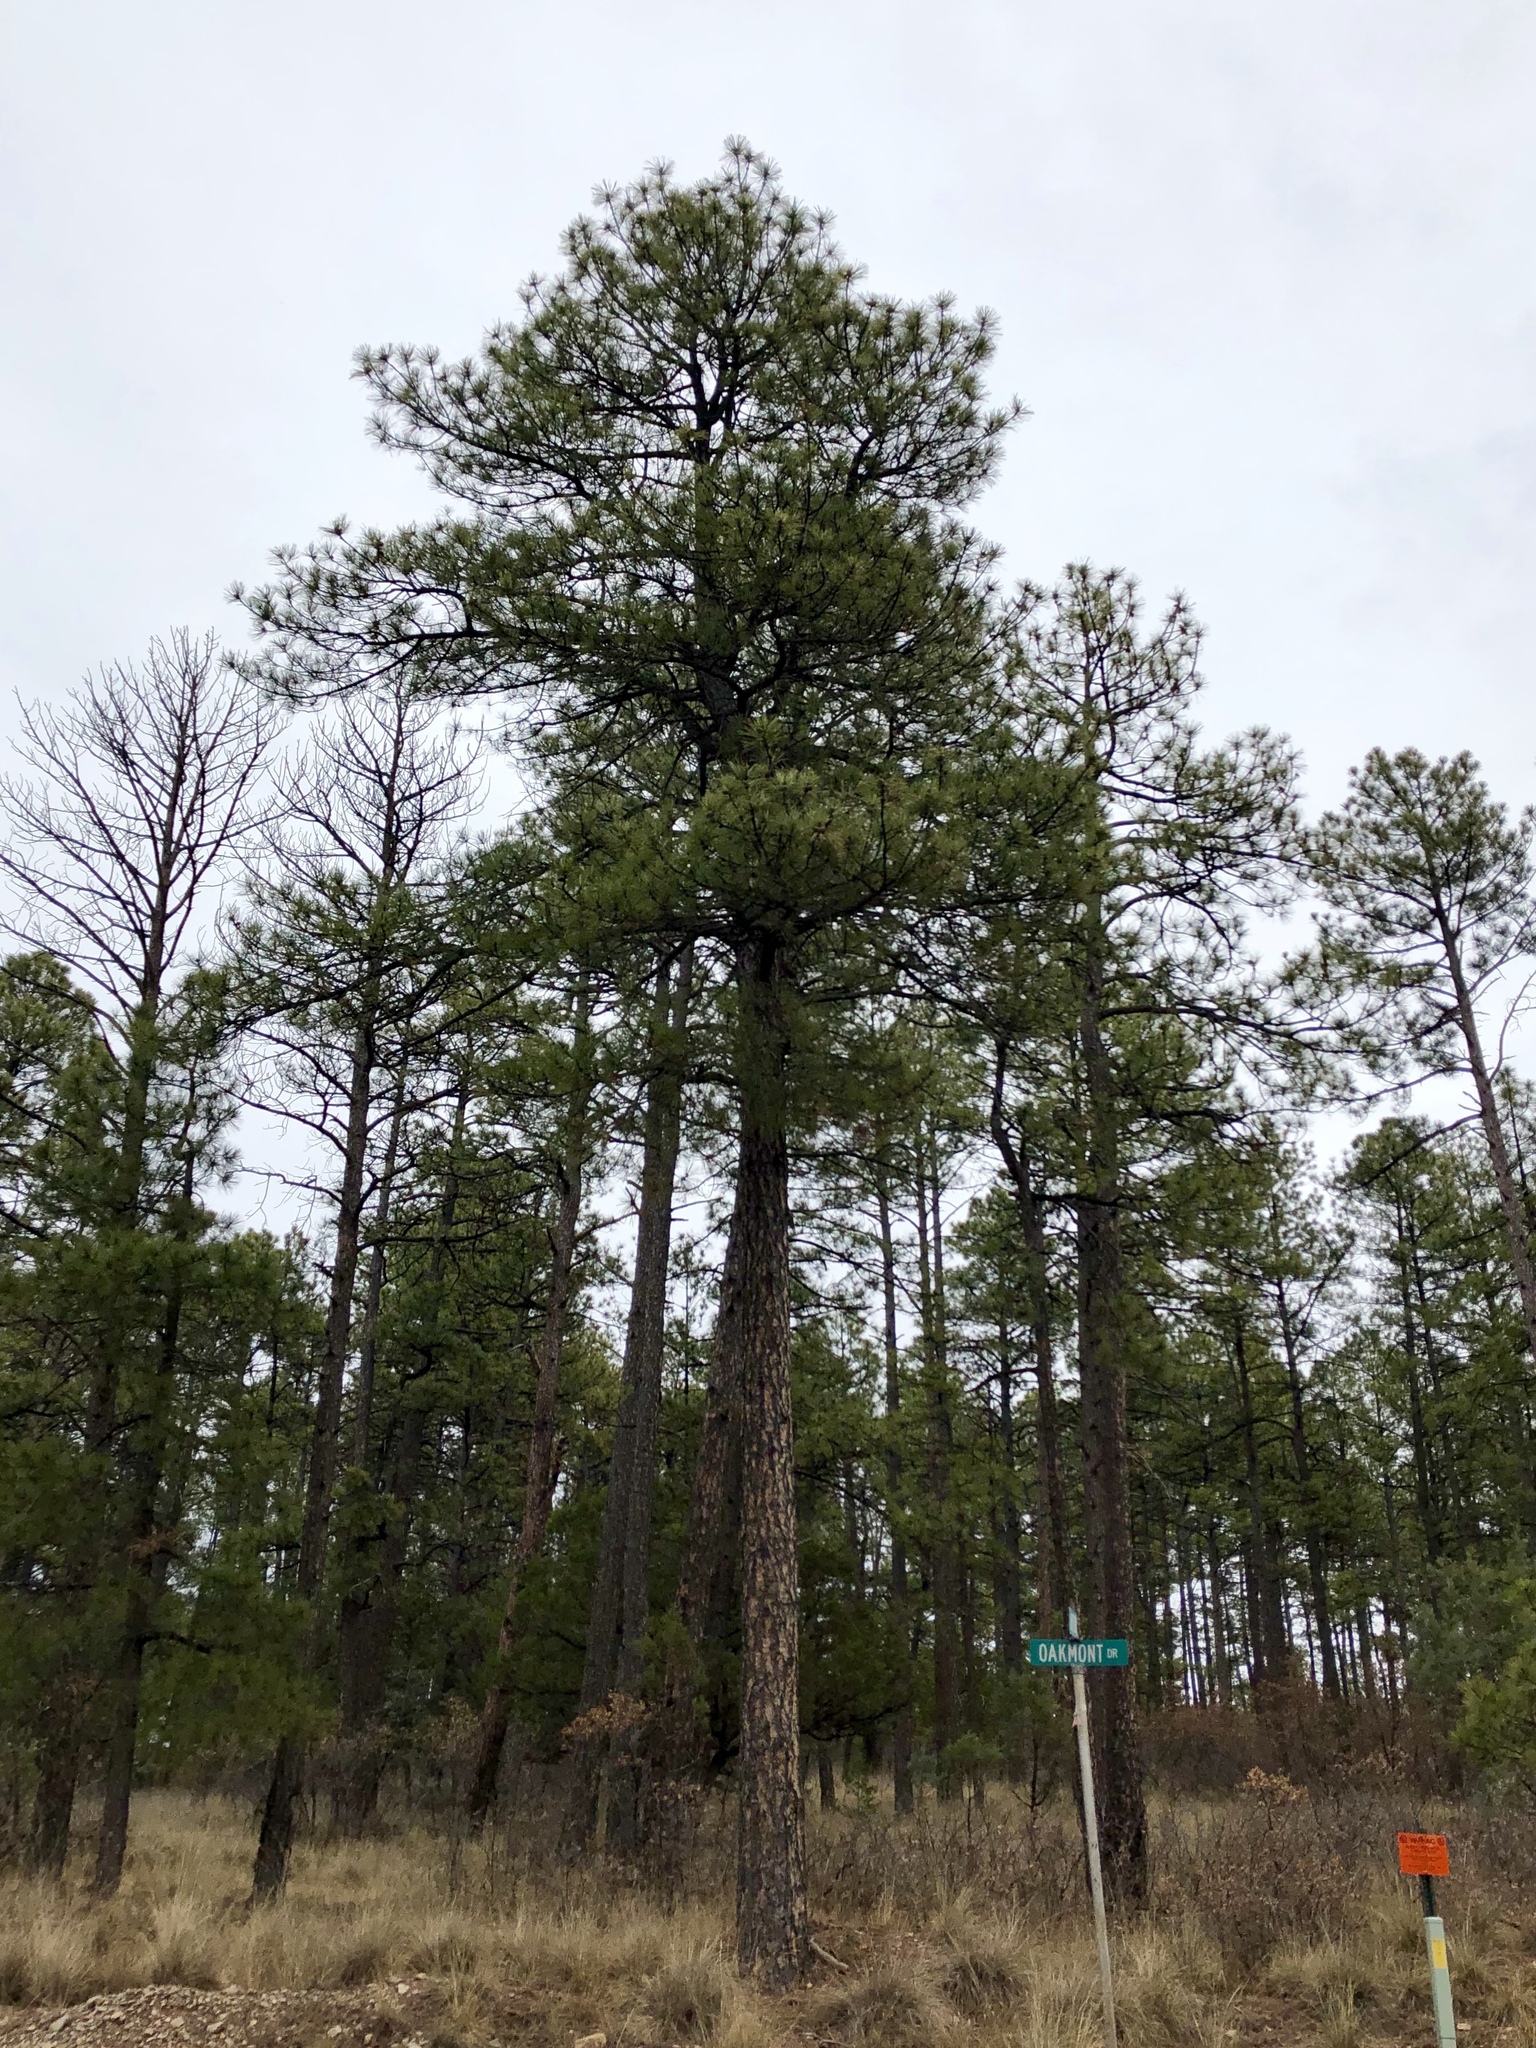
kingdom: Plantae
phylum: Tracheophyta
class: Pinopsida
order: Pinales
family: Pinaceae
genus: Pinus
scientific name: Pinus ponderosa
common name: Western yellow-pine
